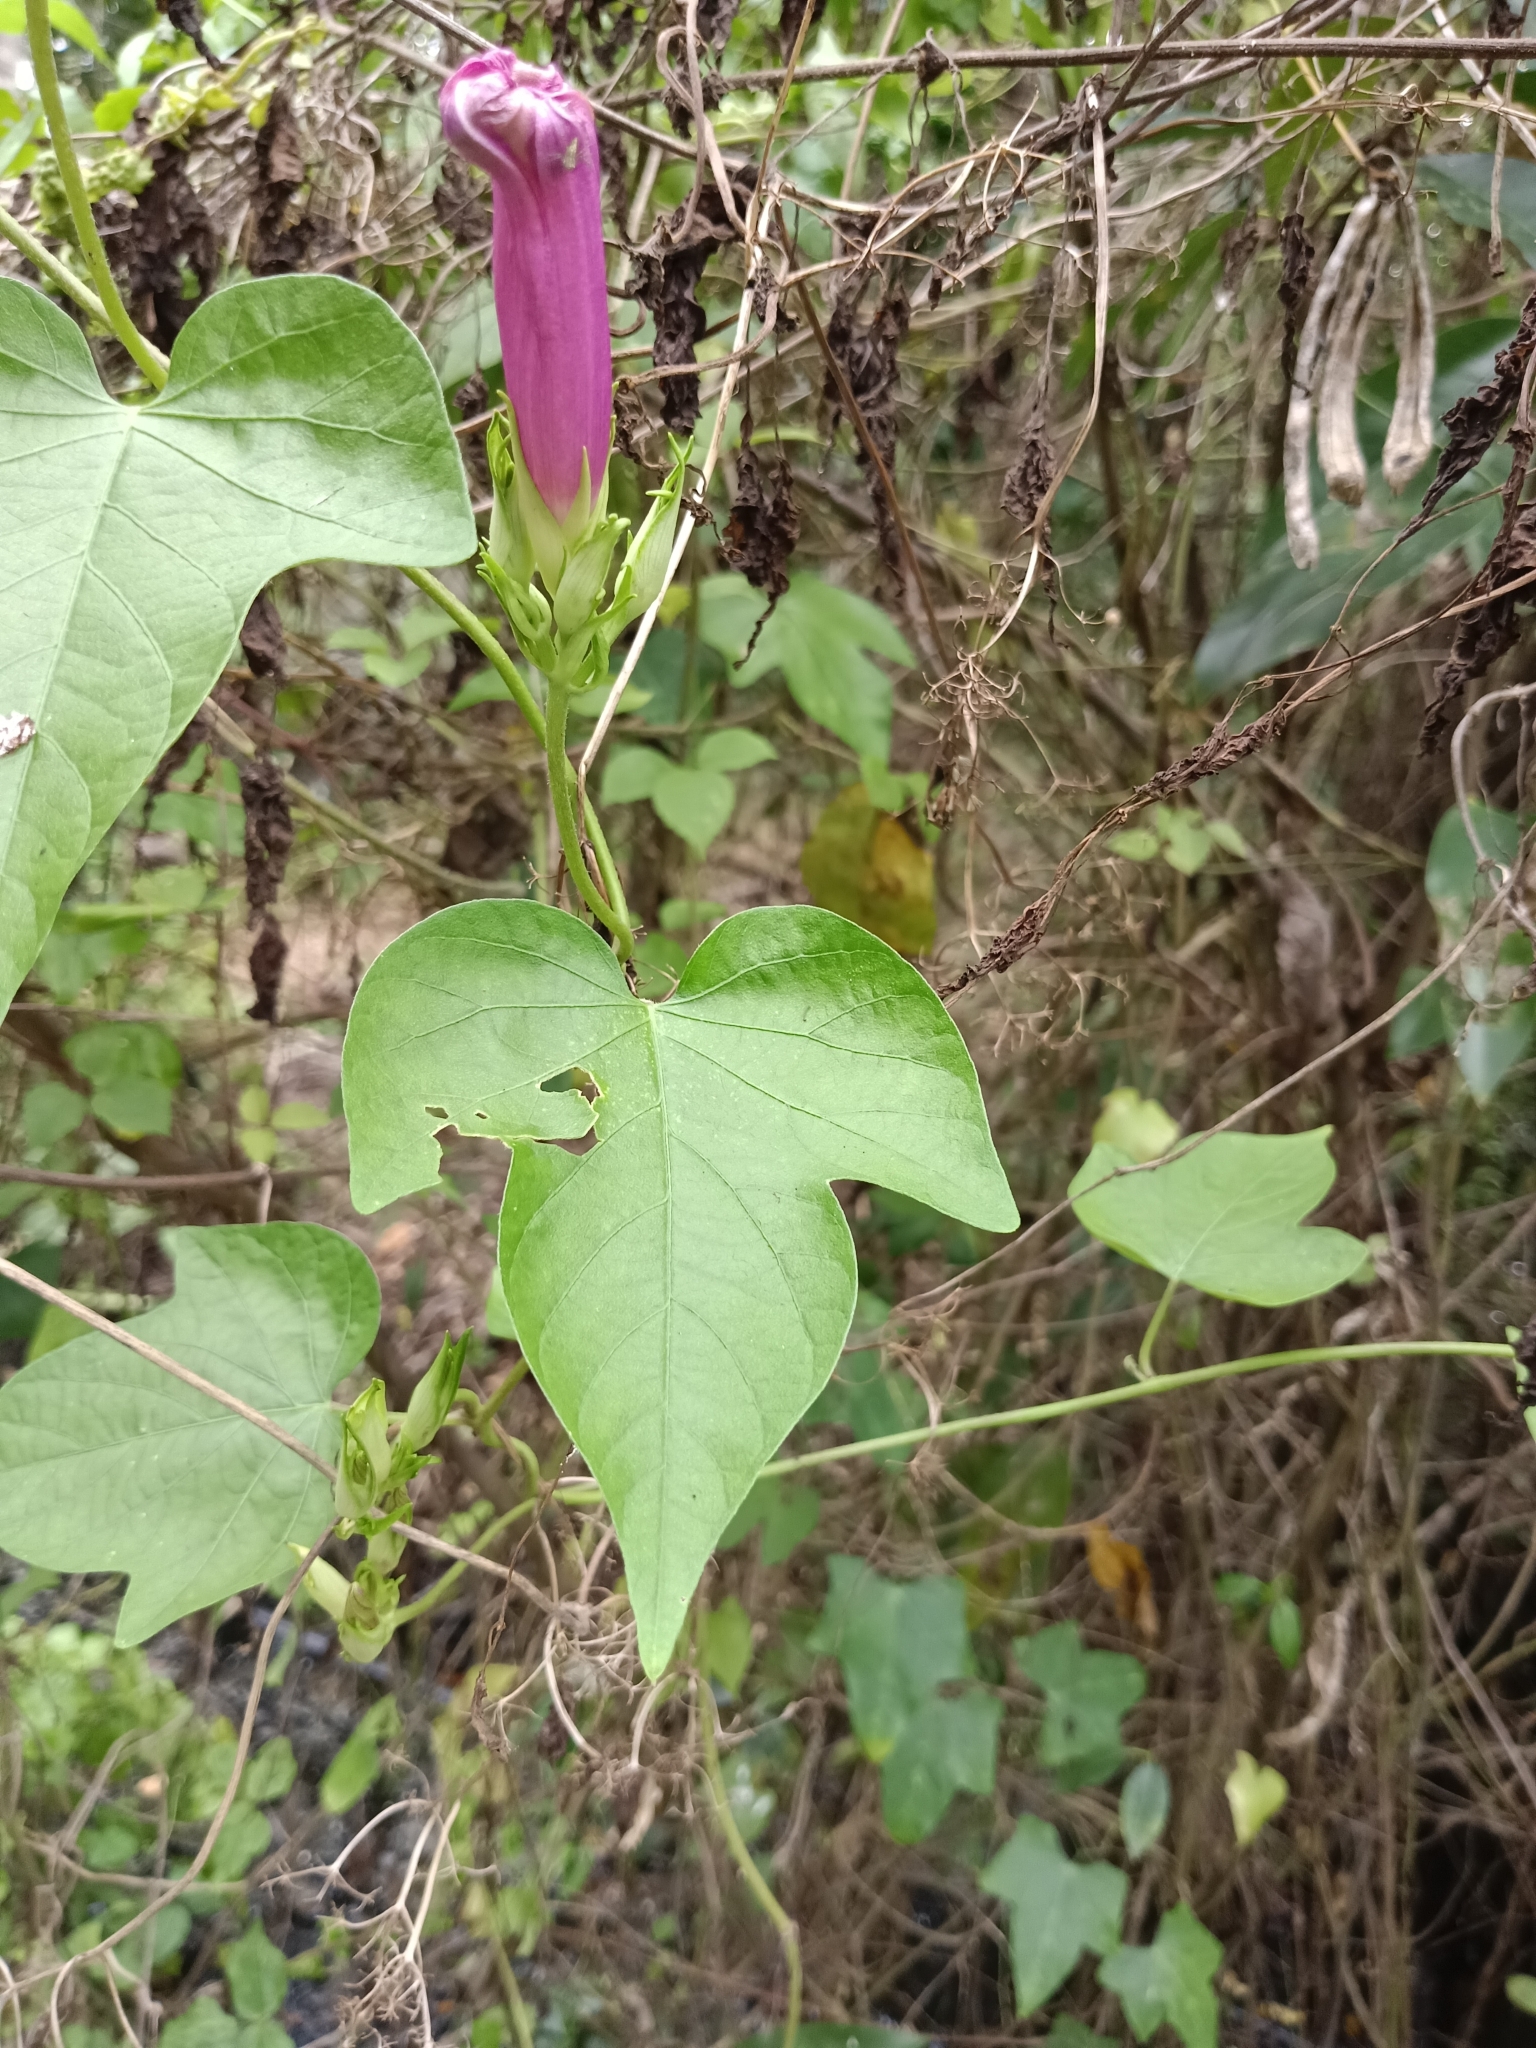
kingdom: Plantae
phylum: Tracheophyta
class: Magnoliopsida
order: Solanales
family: Convolvulaceae
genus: Ipomoea
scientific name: Ipomoea indica
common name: Blue dawnflower
